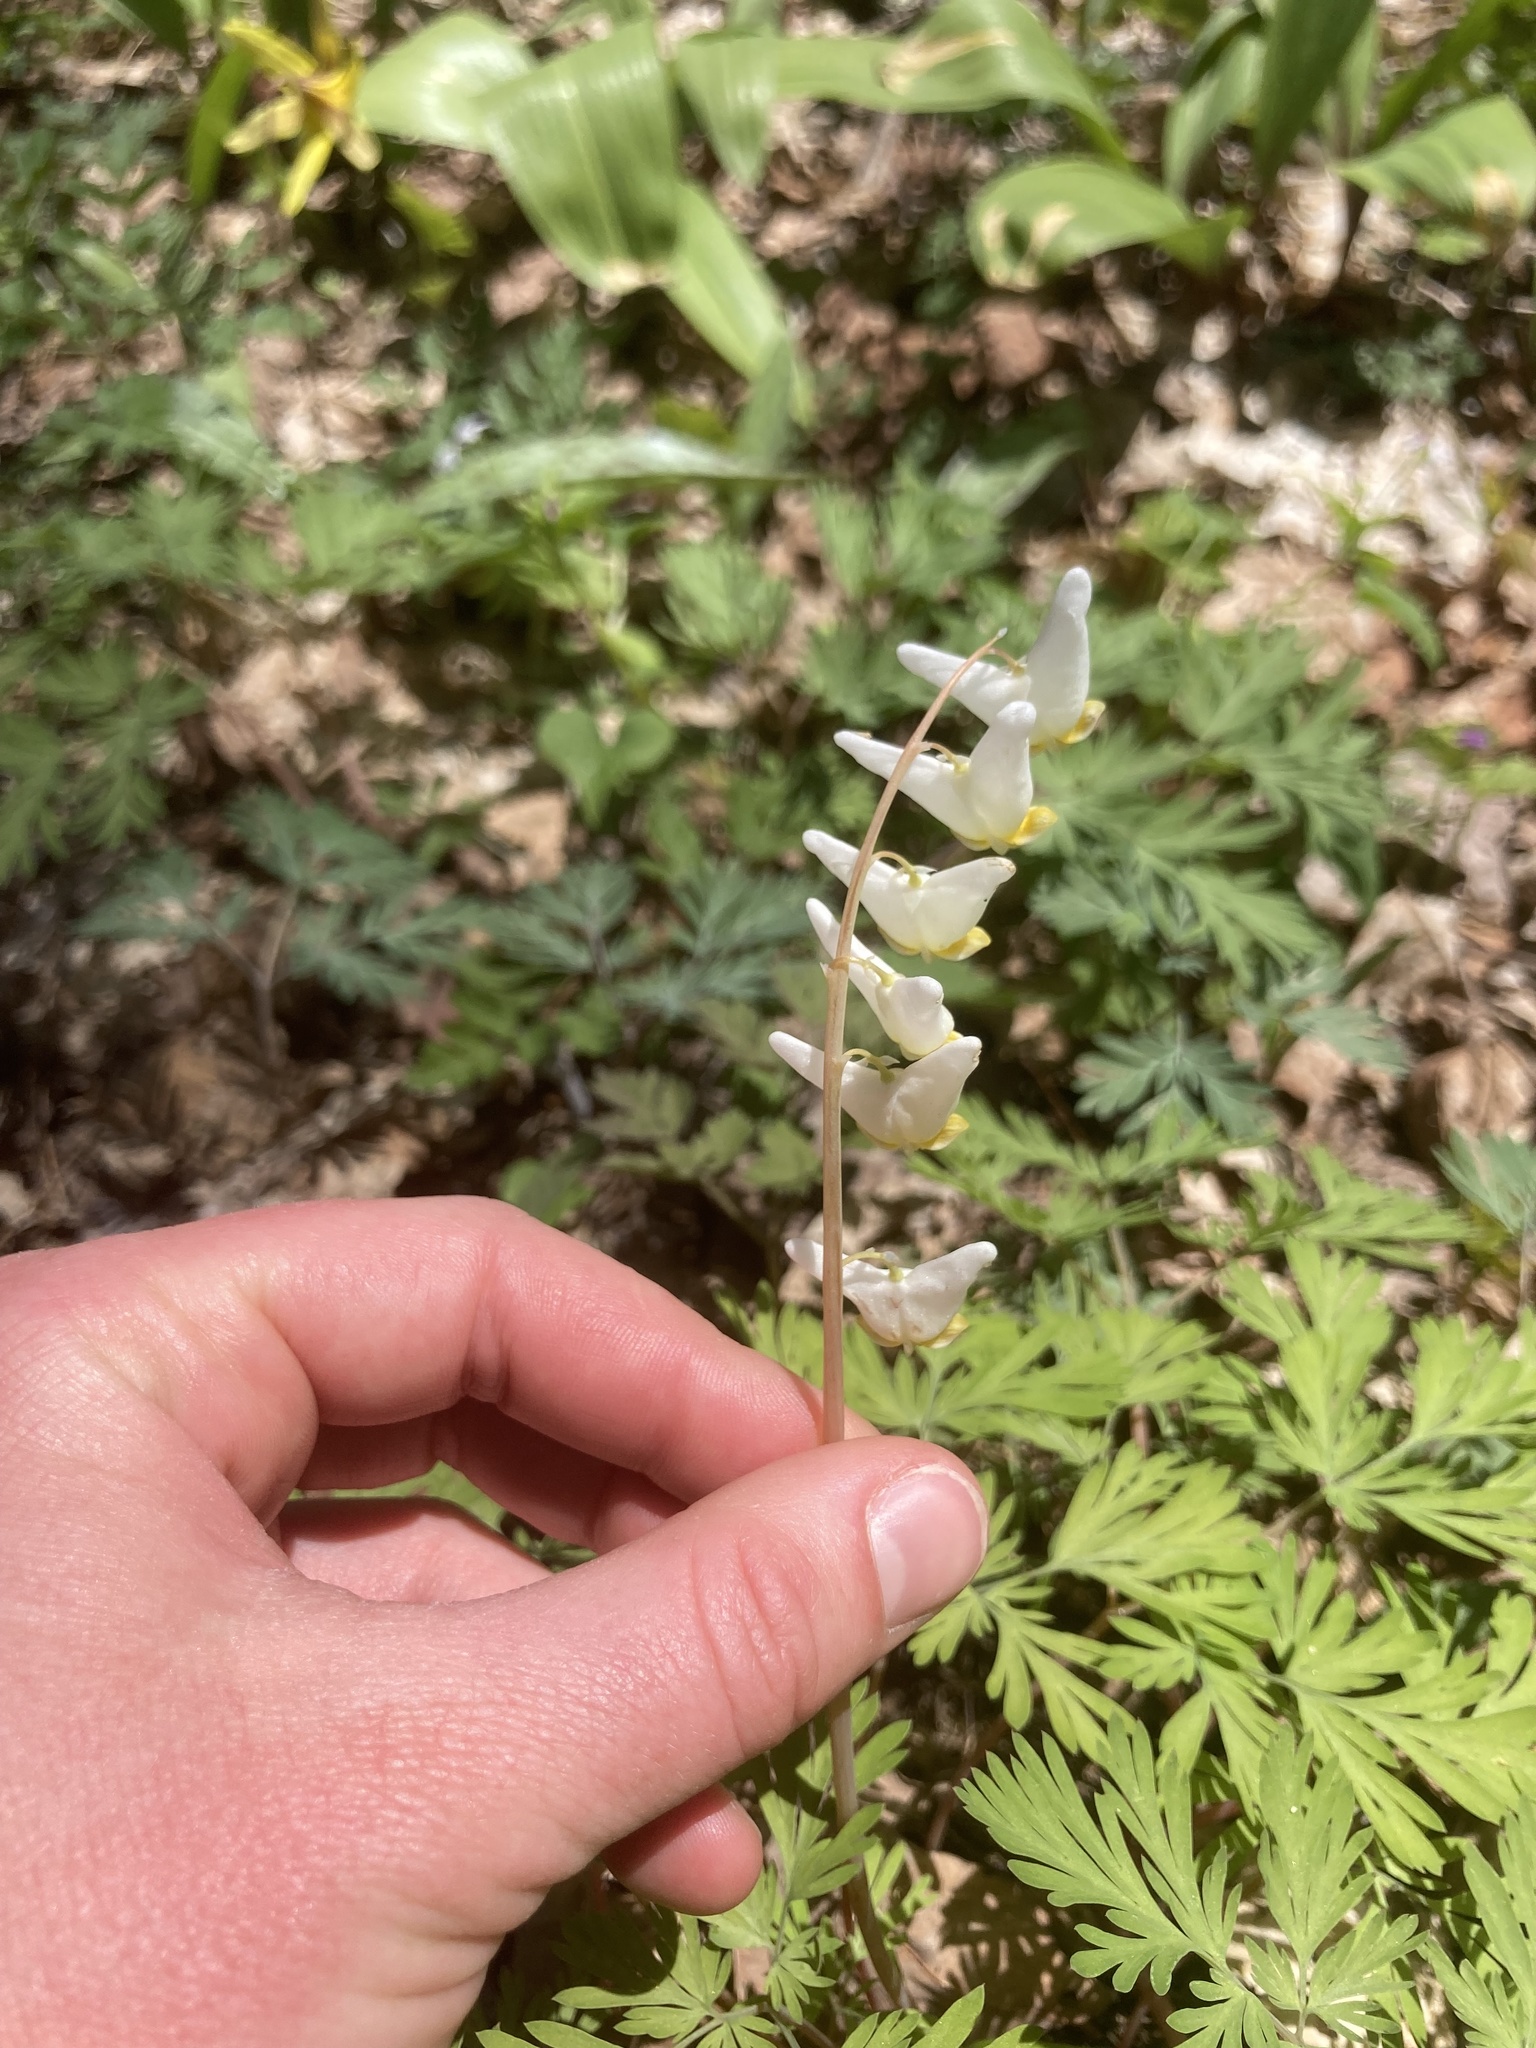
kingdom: Plantae
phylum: Tracheophyta
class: Magnoliopsida
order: Ranunculales
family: Papaveraceae
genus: Dicentra
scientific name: Dicentra cucullaria
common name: Dutchman's breeches
